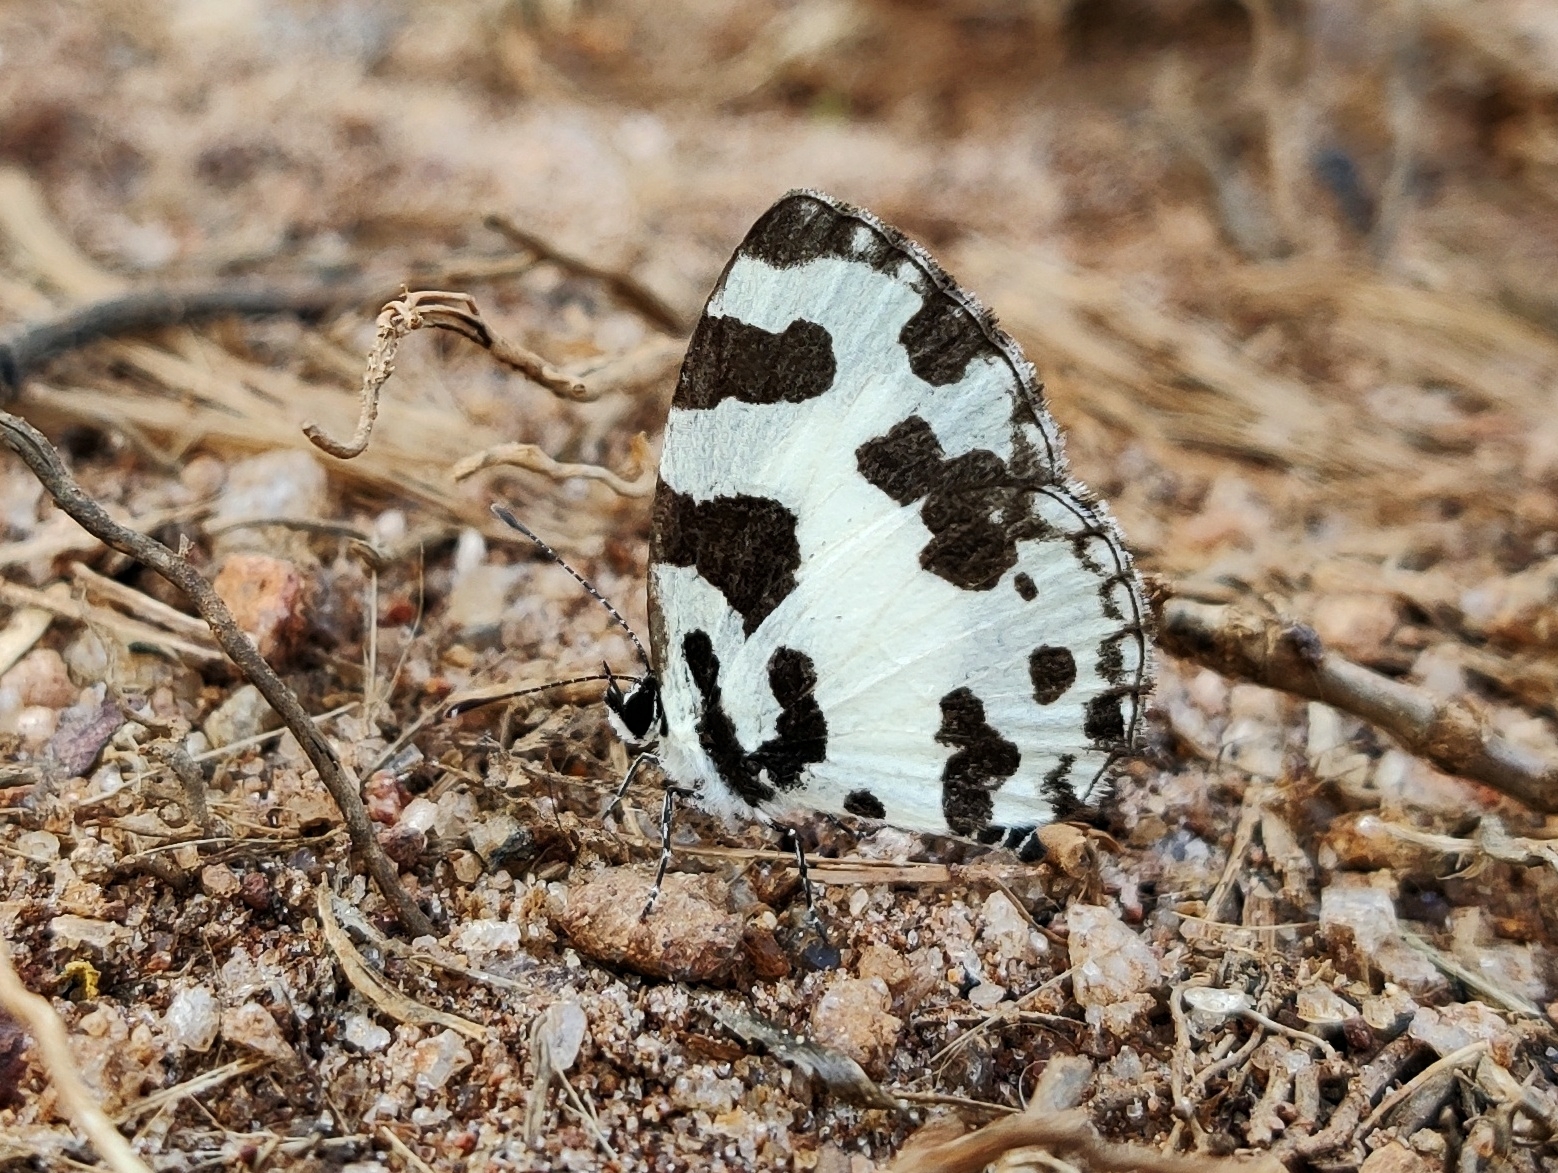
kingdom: Animalia
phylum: Arthropoda
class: Insecta
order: Lepidoptera
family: Lycaenidae
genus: Caleta
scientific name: Caleta decidia
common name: Angled pierrot
